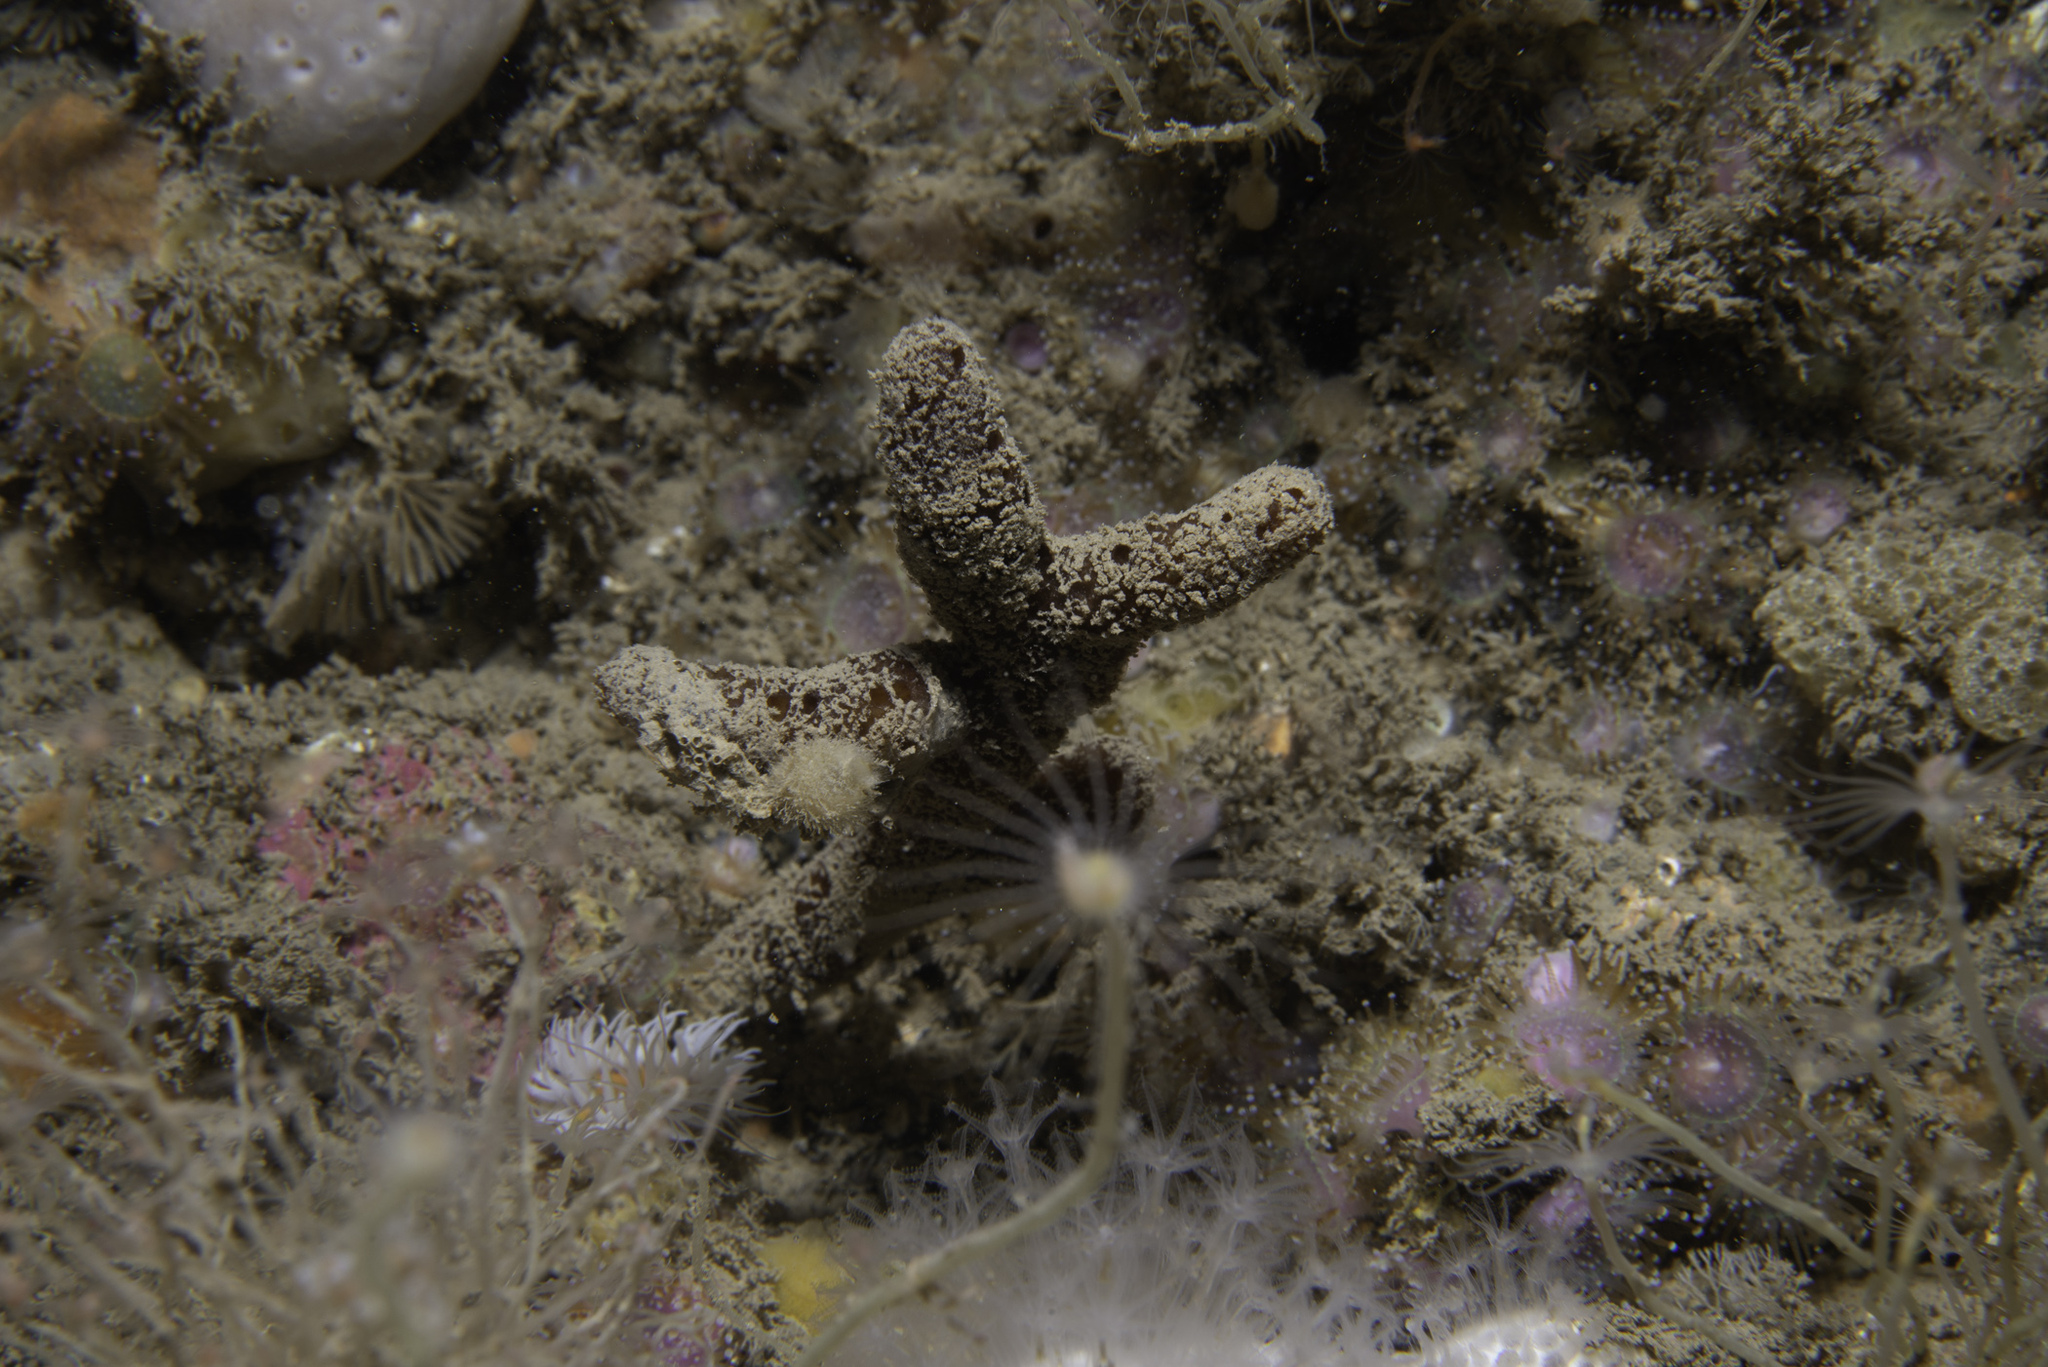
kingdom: Animalia
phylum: Porifera
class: Demospongiae
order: Axinellida
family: Raspailiidae
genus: Raspailia
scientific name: Raspailia ramosa
